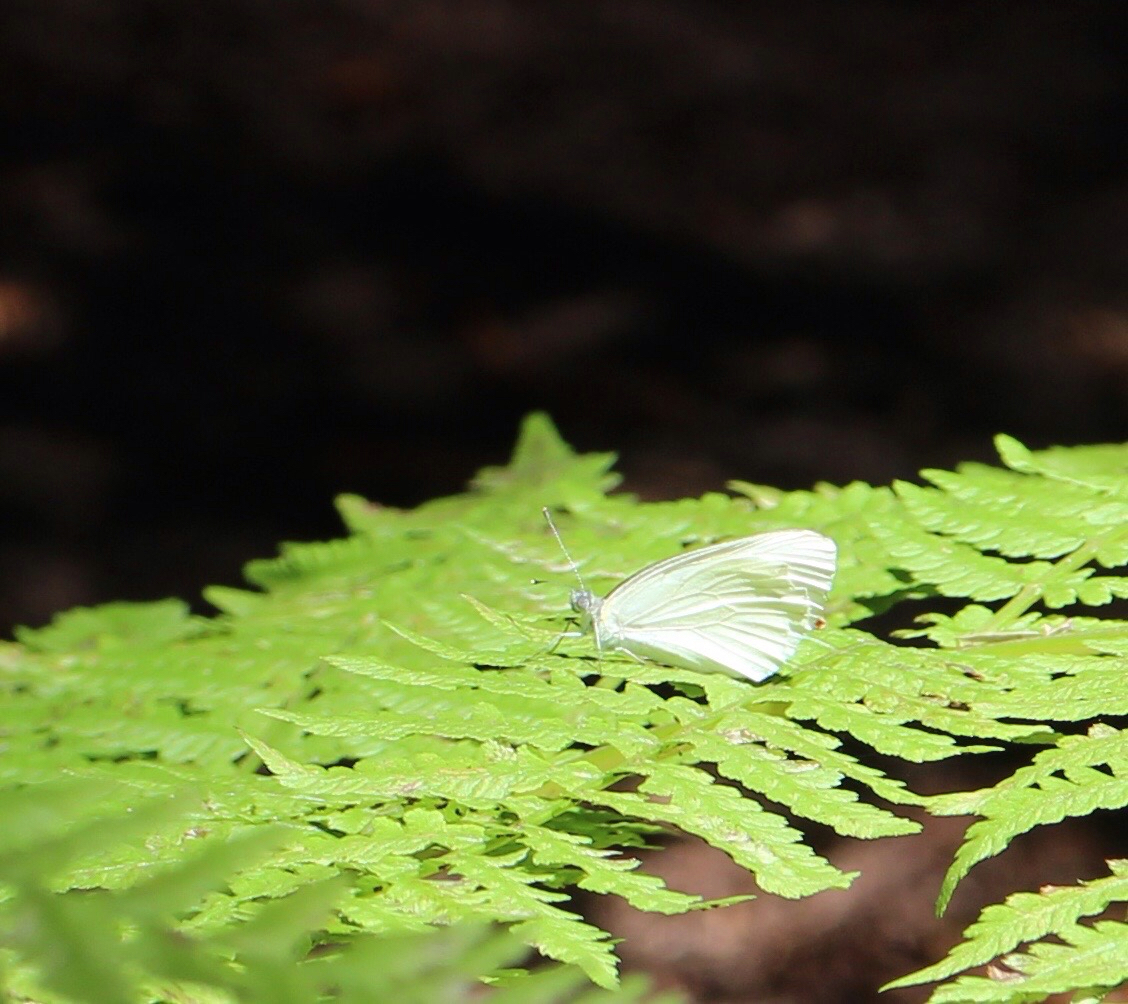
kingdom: Animalia
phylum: Arthropoda
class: Insecta
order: Lepidoptera
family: Pieridae
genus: Pieris
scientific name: Pieris rapae
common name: Small white
